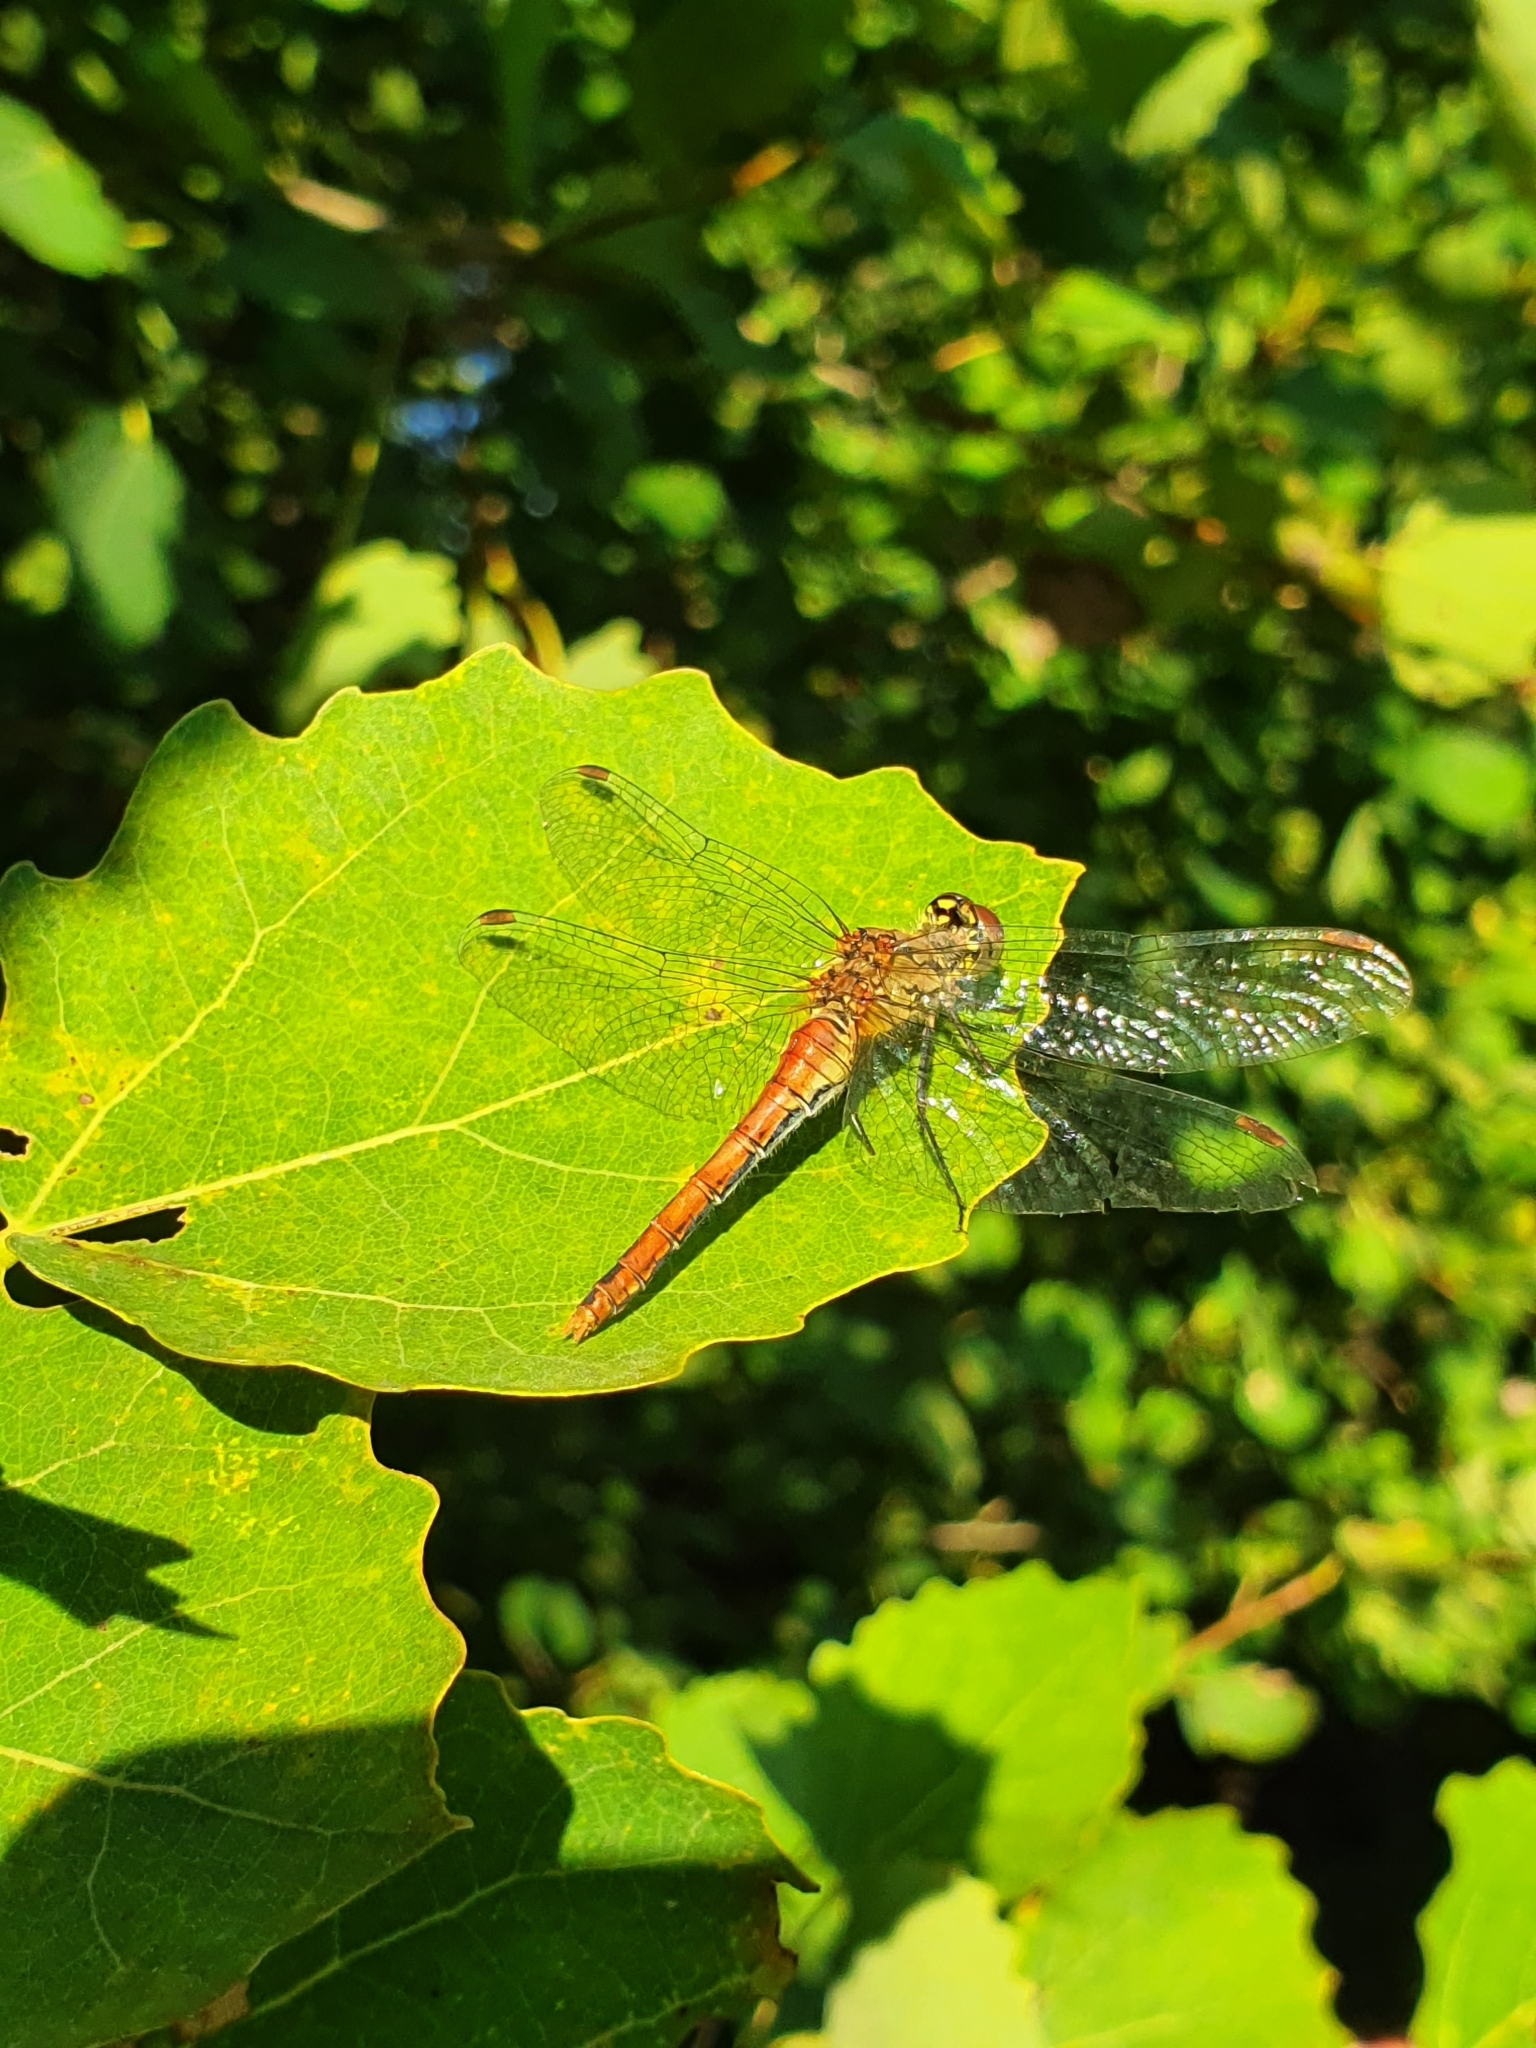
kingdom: Animalia
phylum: Arthropoda
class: Insecta
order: Odonata
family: Libellulidae
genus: Sympetrum
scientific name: Sympetrum sanguineum
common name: Ruddy darter
